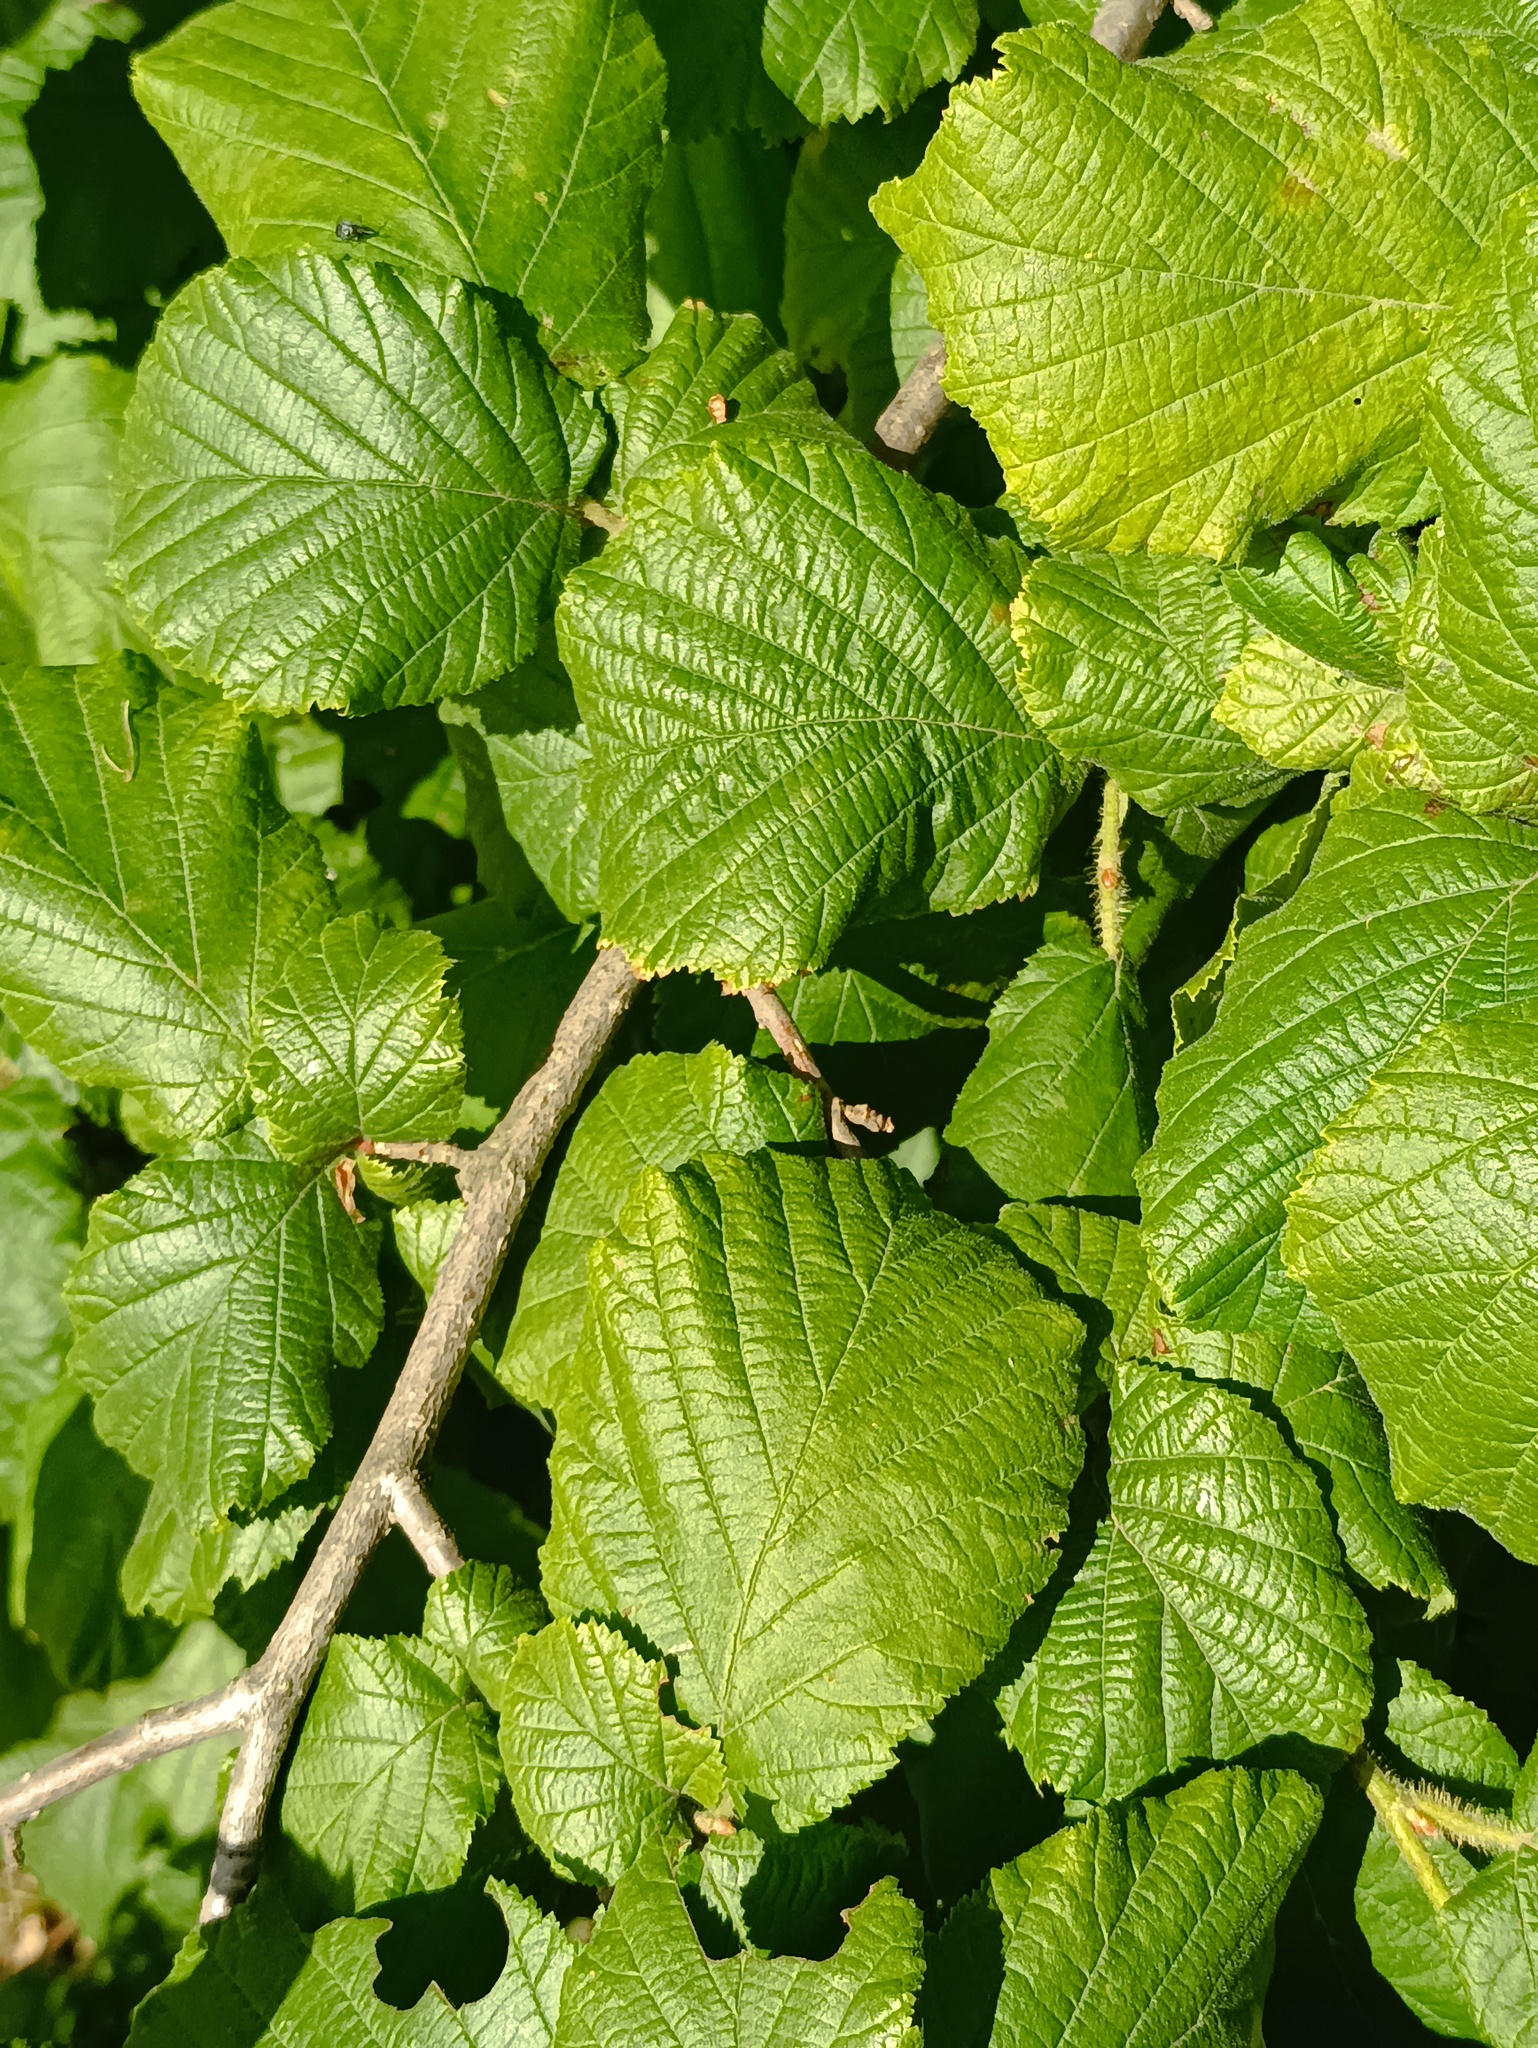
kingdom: Plantae
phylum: Tracheophyta
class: Magnoliopsida
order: Fagales
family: Betulaceae
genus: Corylus
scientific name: Corylus avellana
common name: European hazel
